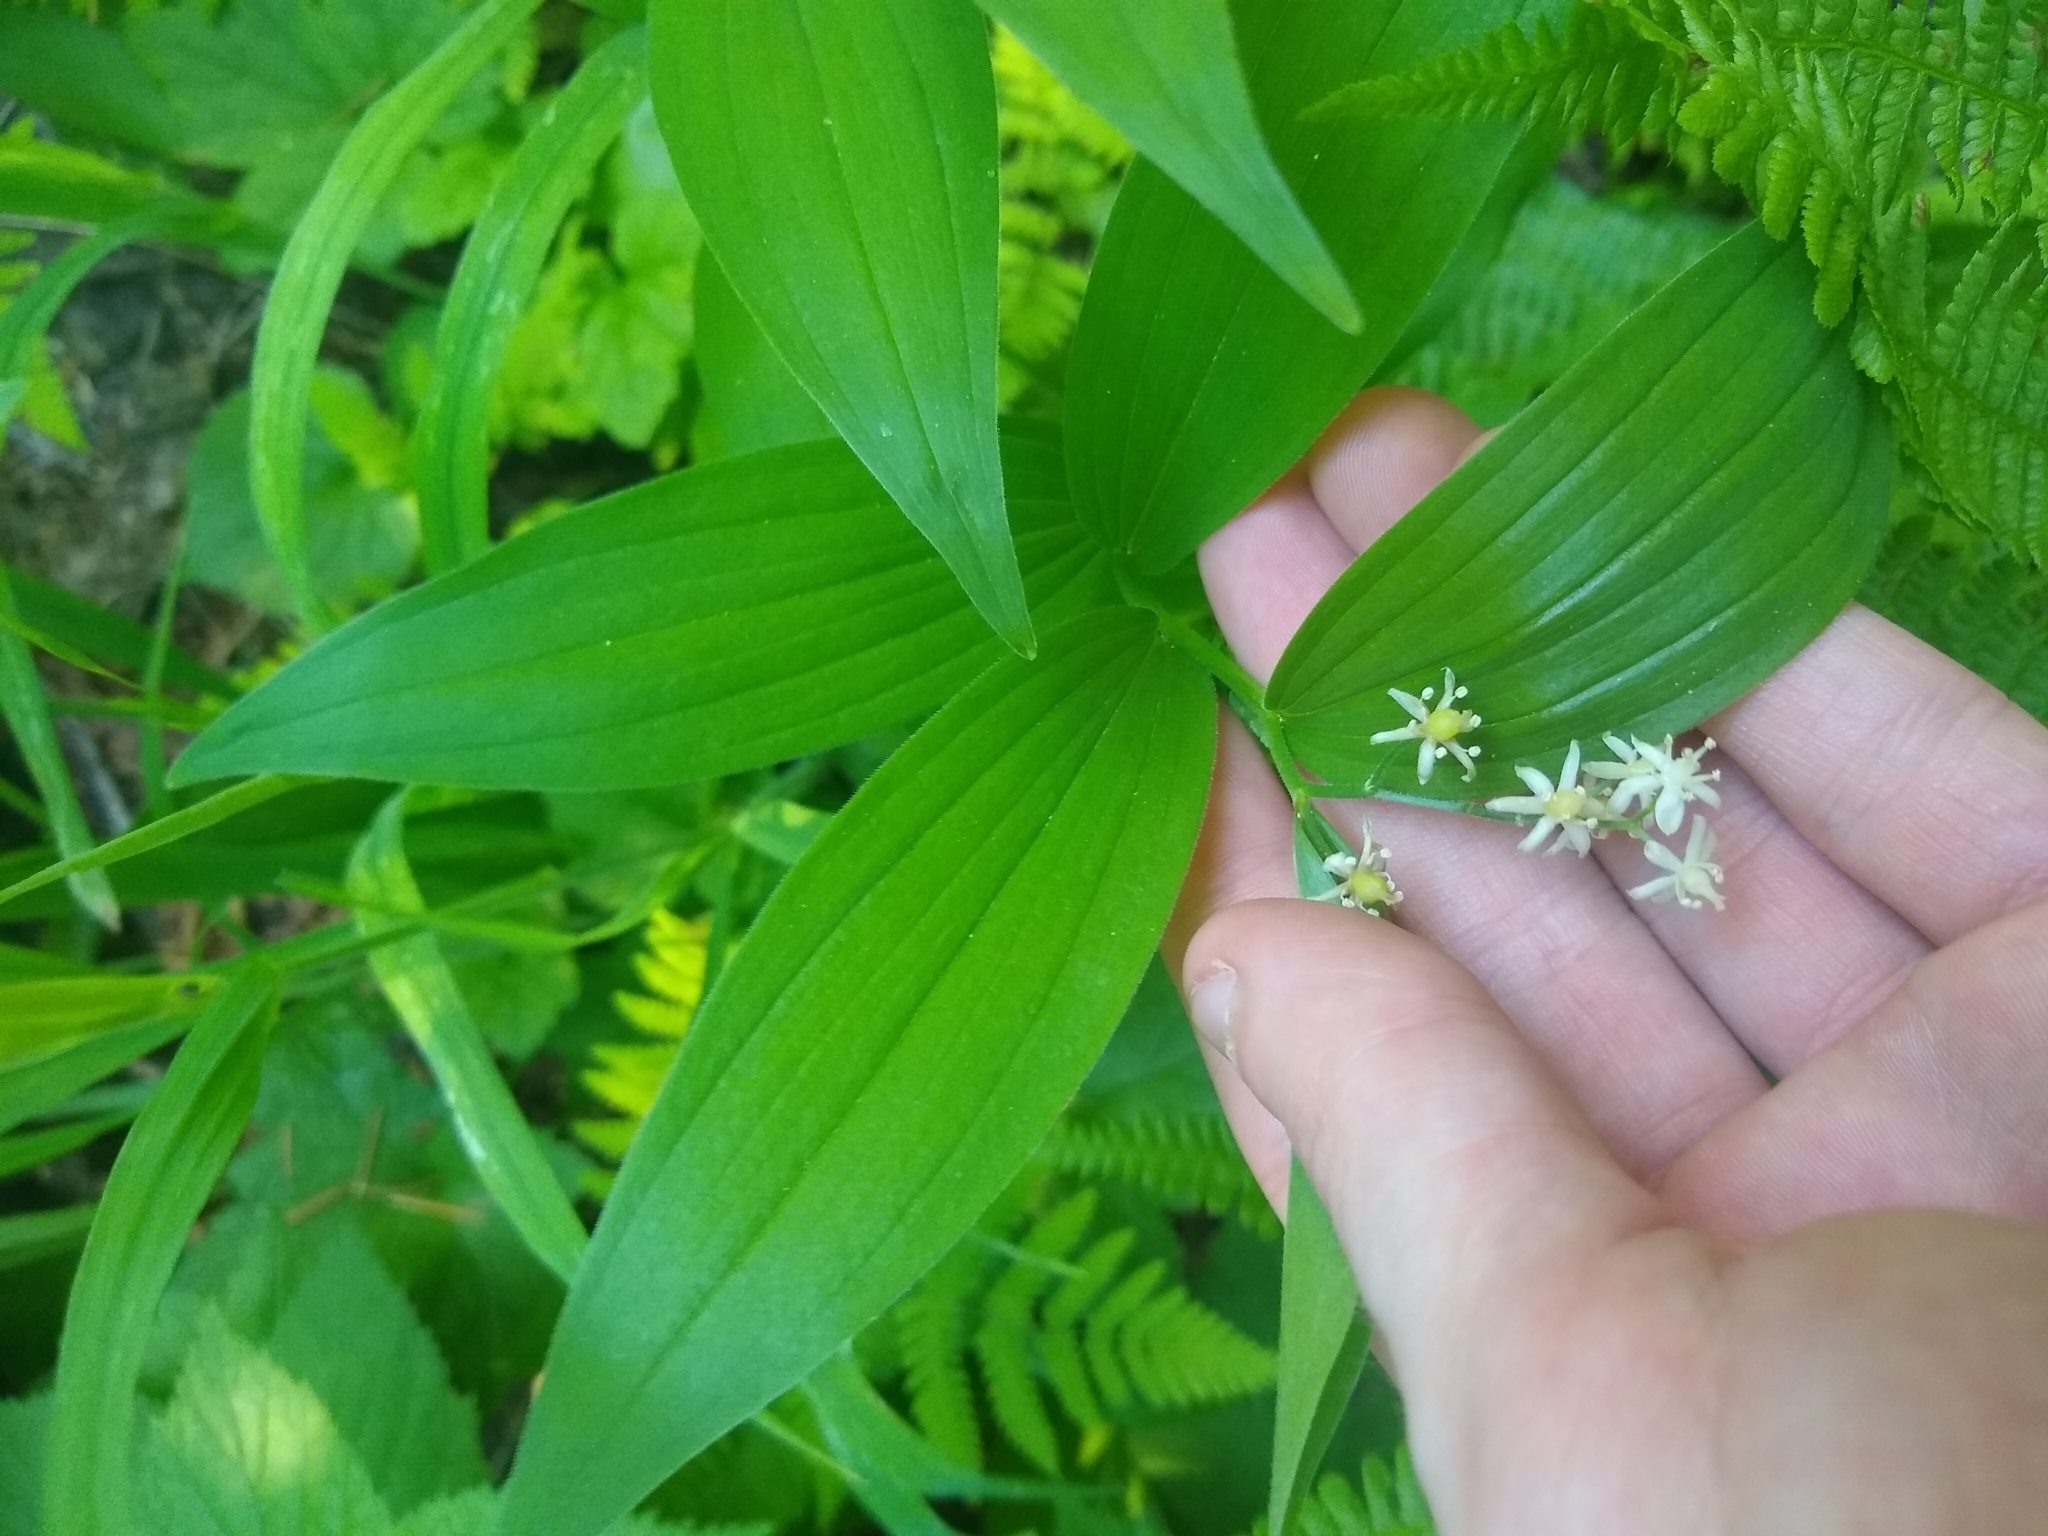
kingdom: Plantae
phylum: Tracheophyta
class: Liliopsida
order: Asparagales
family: Asparagaceae
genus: Maianthemum
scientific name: Maianthemum stellatum
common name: Little false solomon's seal
